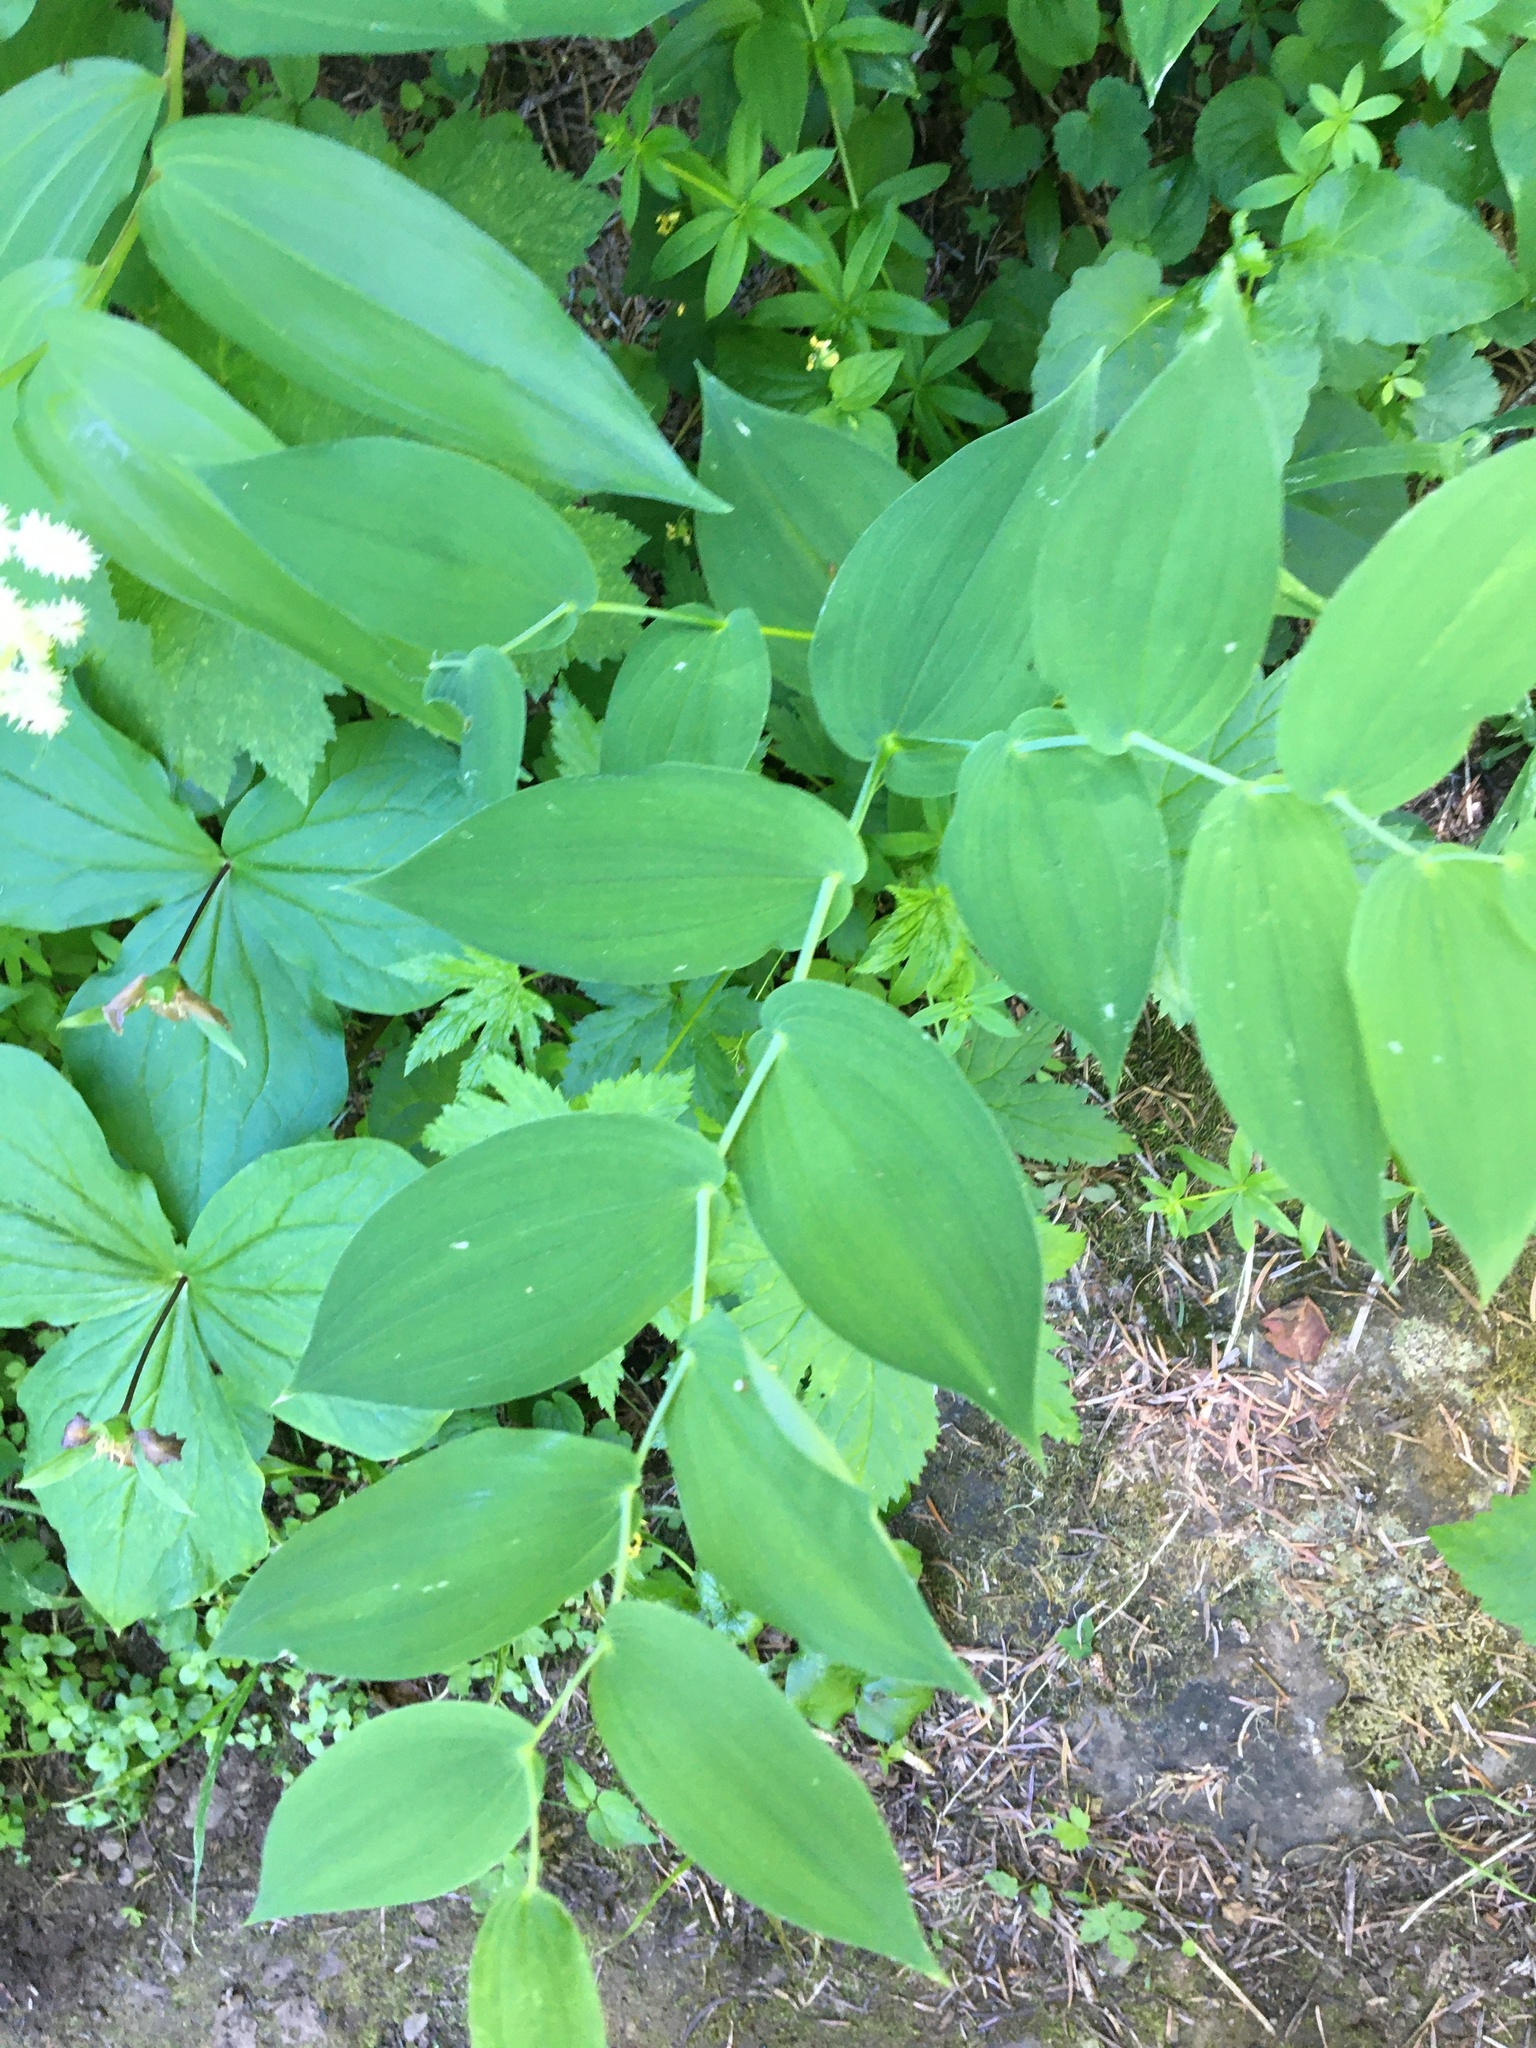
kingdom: Plantae
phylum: Tracheophyta
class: Liliopsida
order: Liliales
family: Liliaceae
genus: Streptopus
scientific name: Streptopus amplexifolius
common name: Clasp twisted stalk
